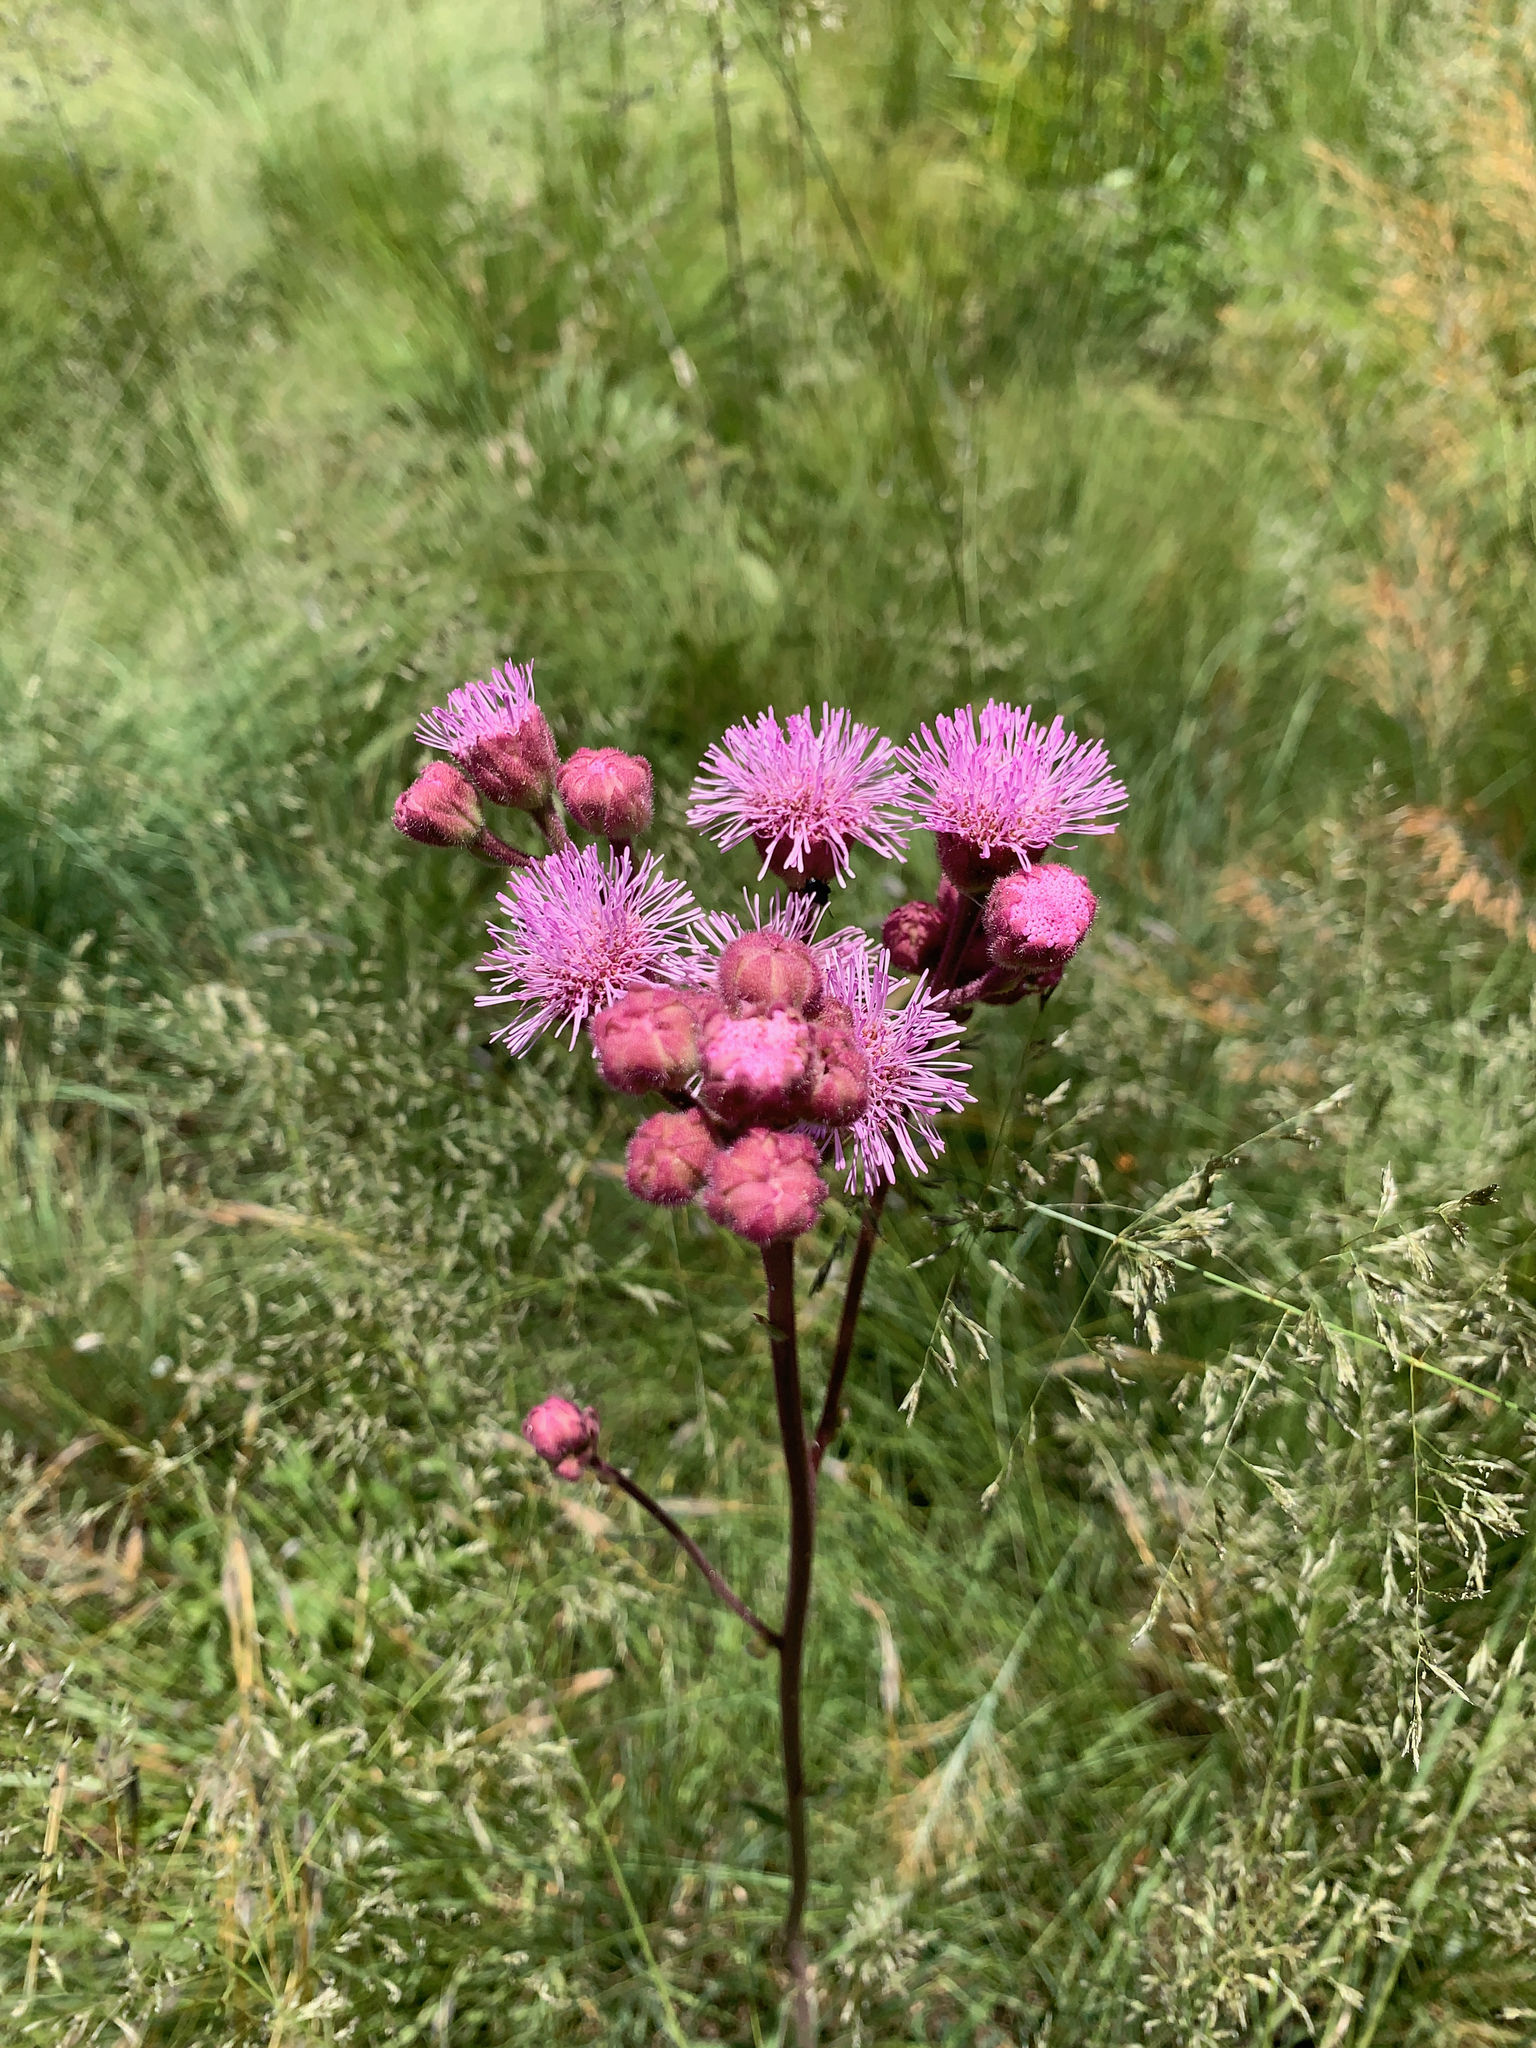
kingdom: Plantae
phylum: Tracheophyta
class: Magnoliopsida
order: Asterales
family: Asteraceae
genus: Campuloclinium
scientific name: Campuloclinium macrocephalum
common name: Pompomweed
